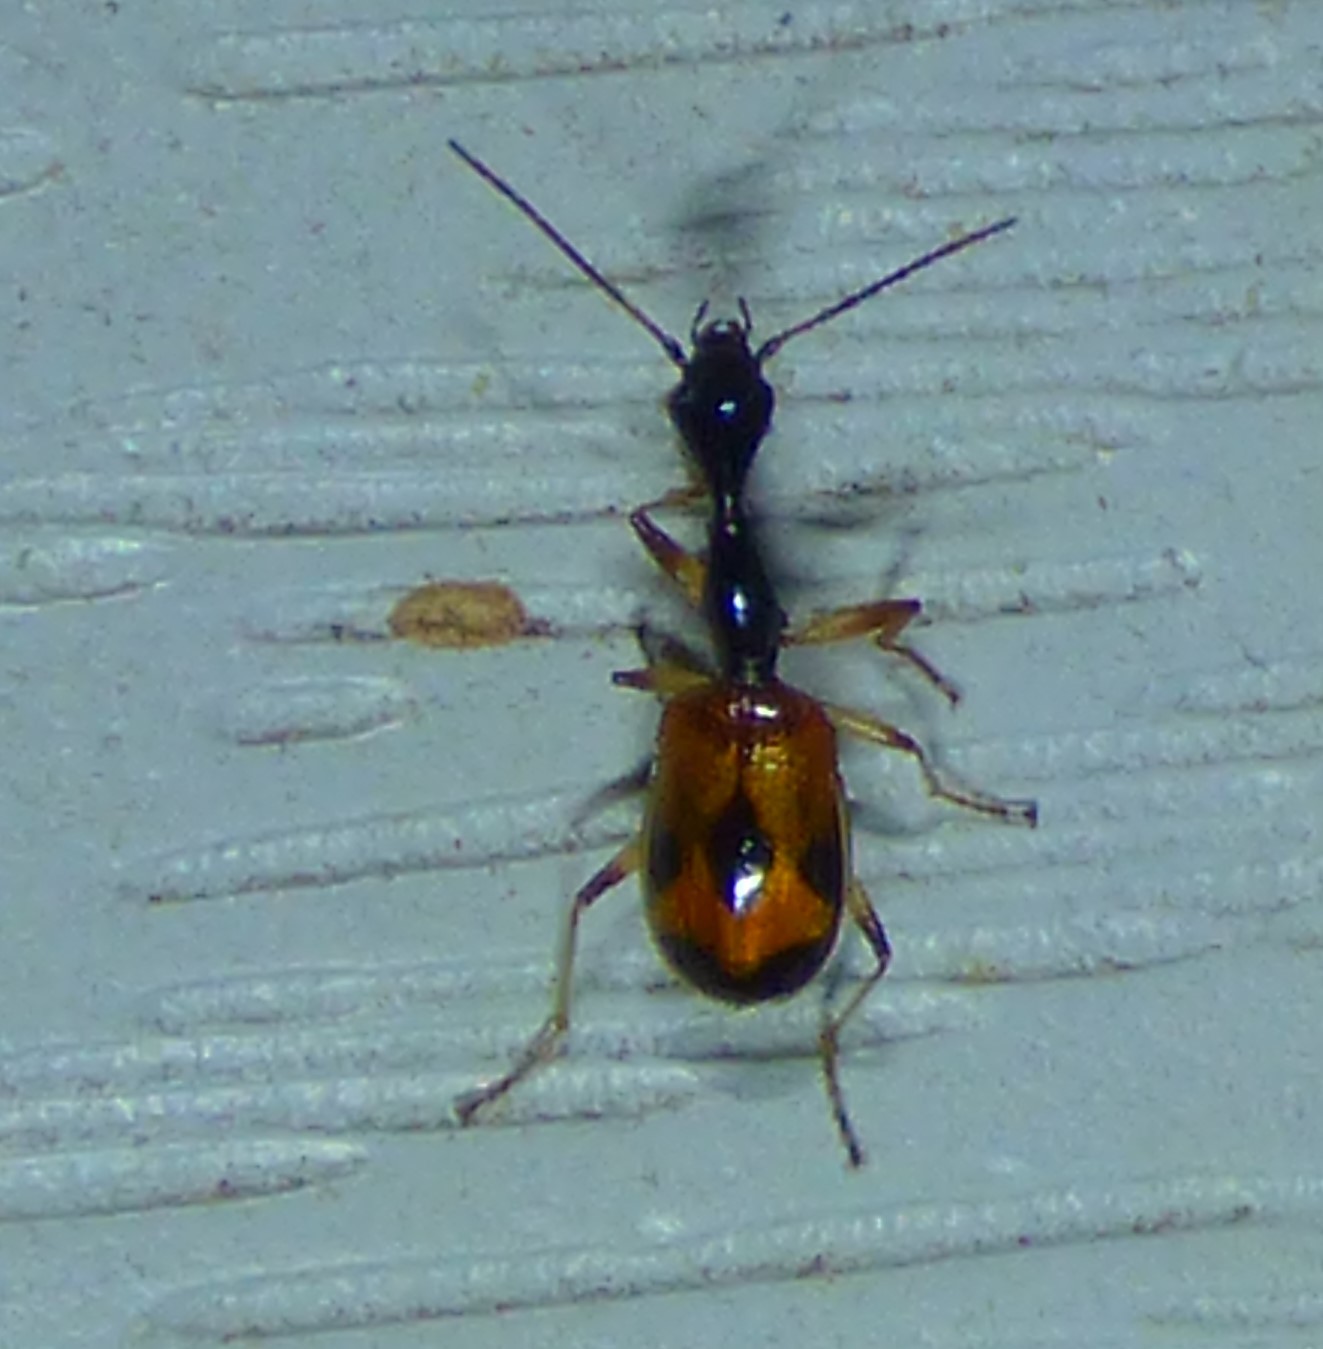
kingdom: Animalia
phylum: Arthropoda
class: Insecta
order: Coleoptera
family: Carabidae
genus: Colliuris
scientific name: Colliuris pensylvanica
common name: Long-necked ground beetle
